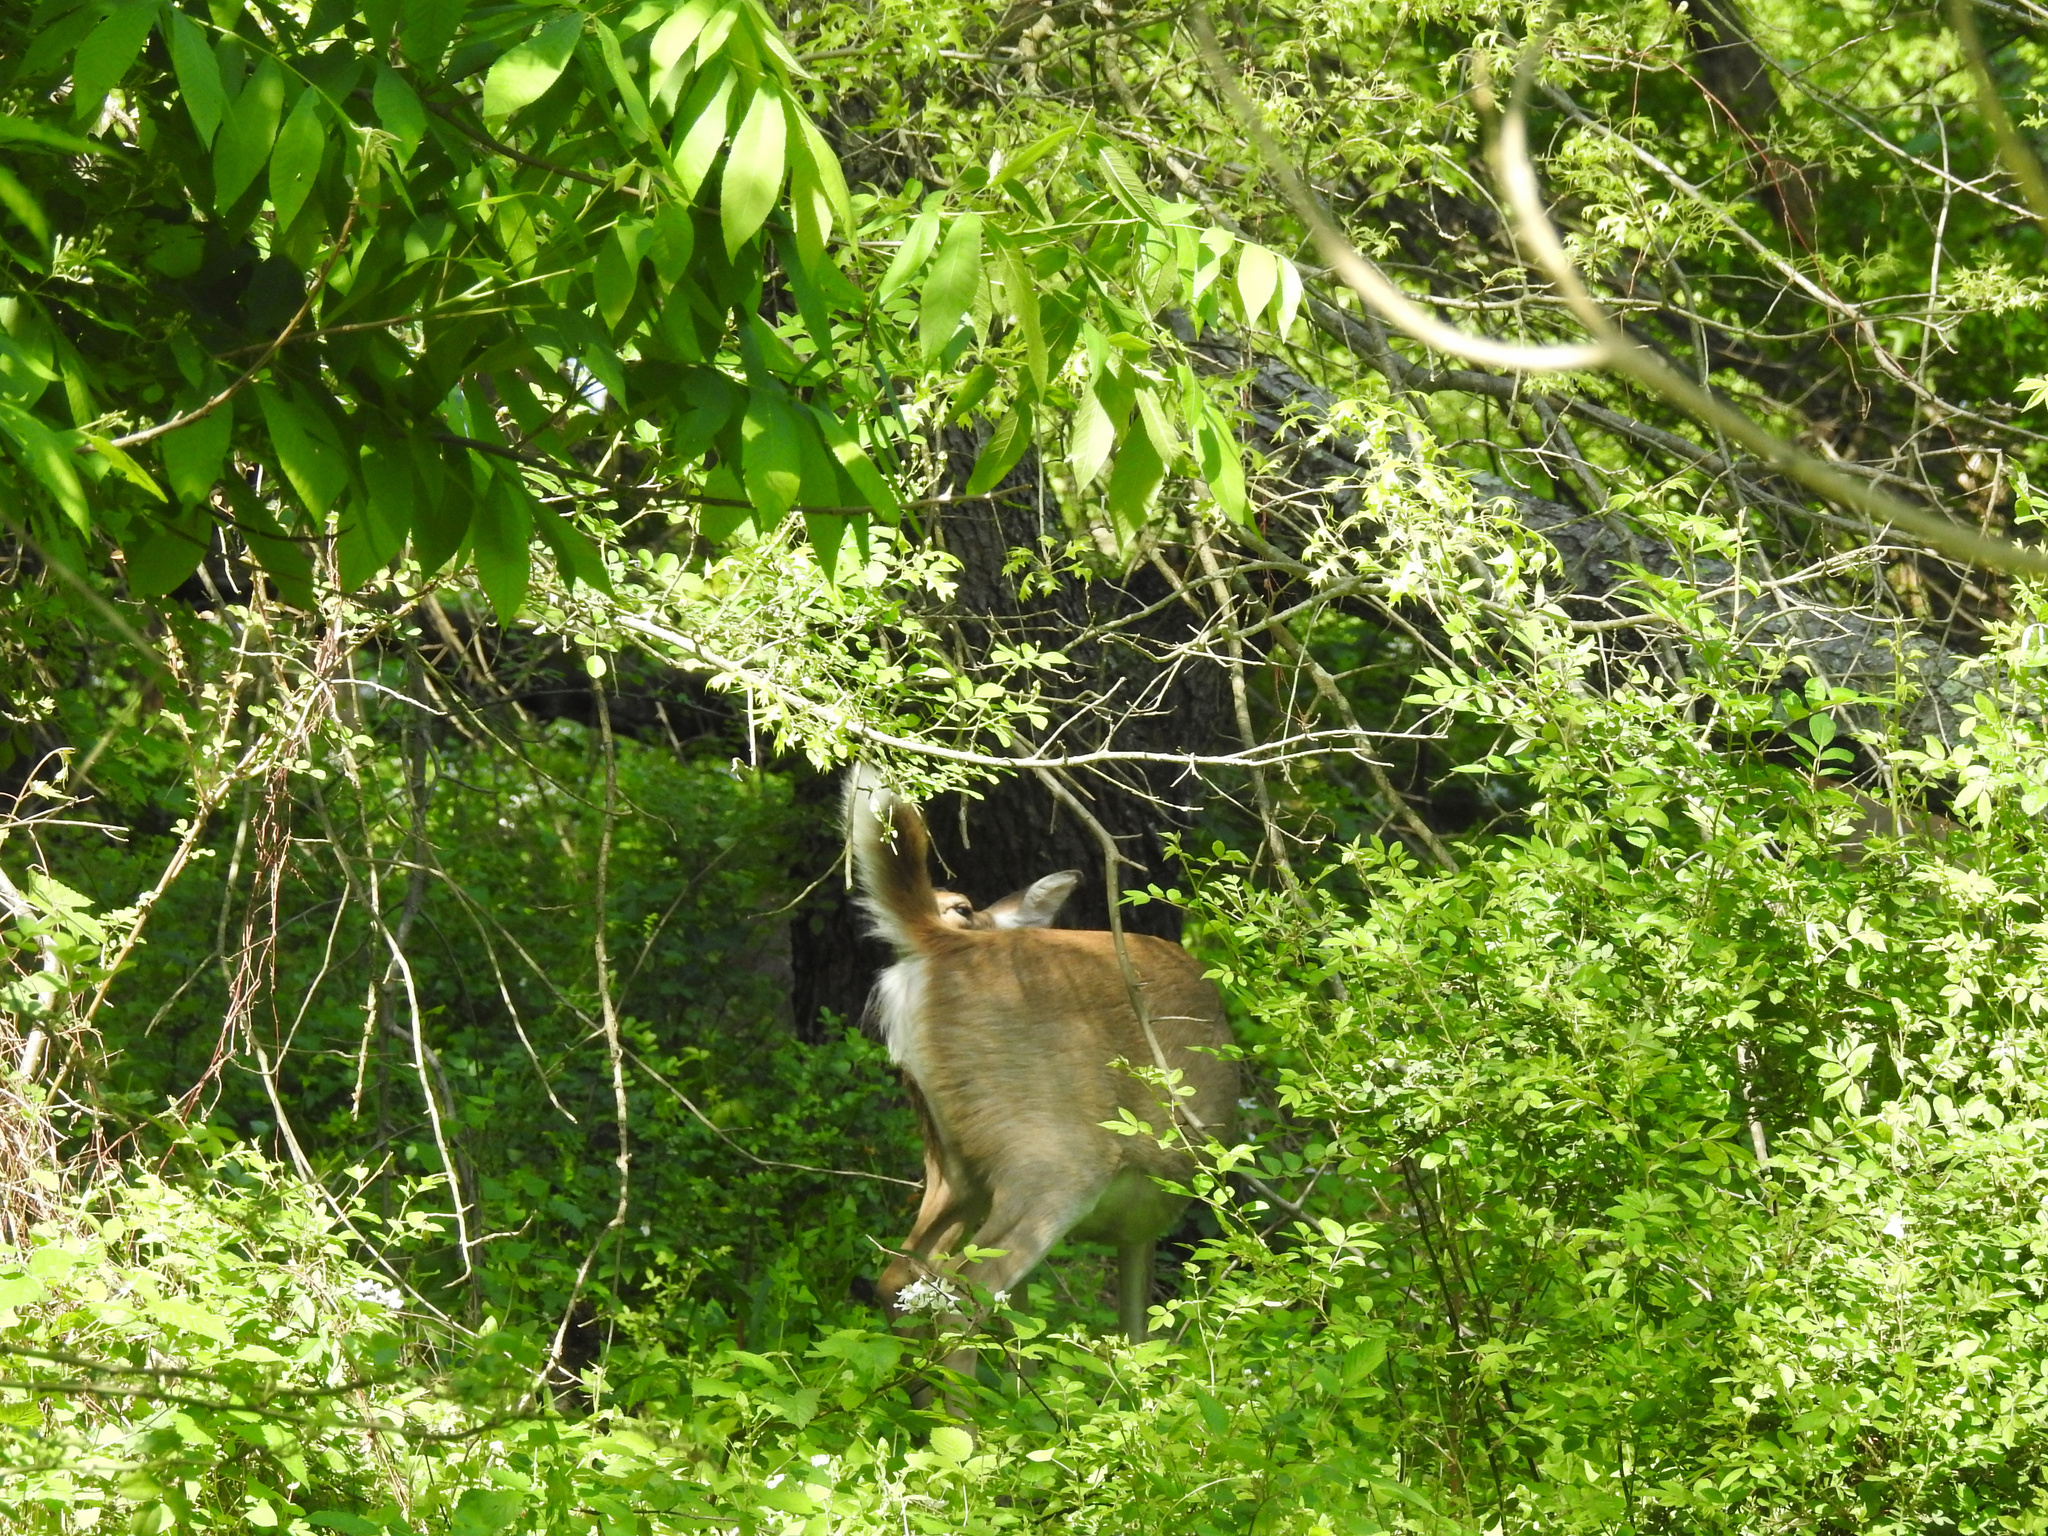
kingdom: Animalia
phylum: Chordata
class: Mammalia
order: Artiodactyla
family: Cervidae
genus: Odocoileus
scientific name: Odocoileus virginianus
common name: White-tailed deer
